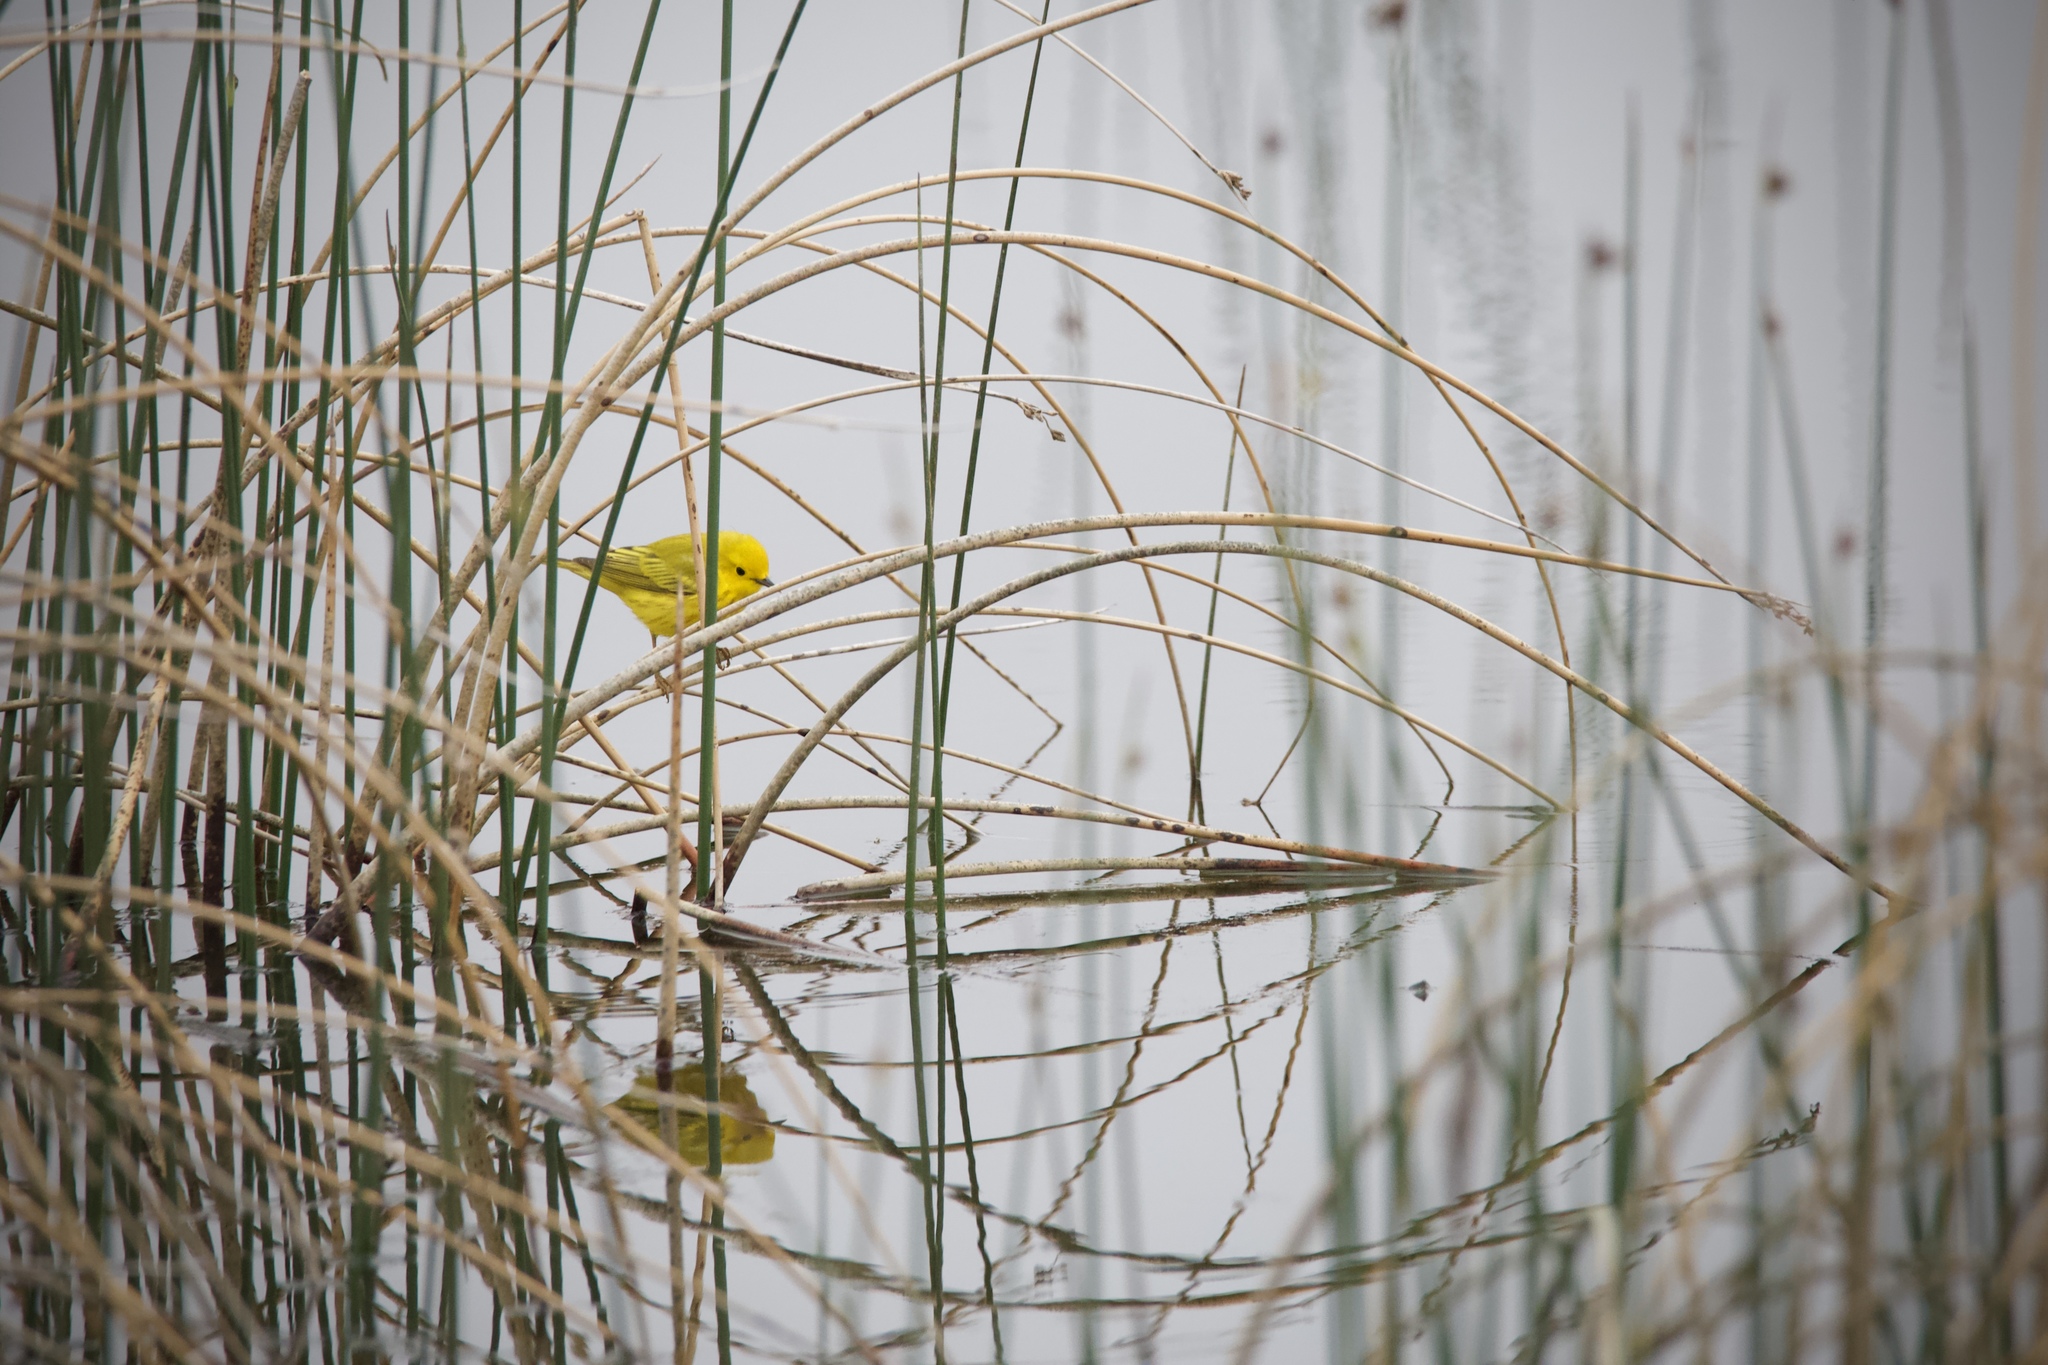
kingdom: Animalia
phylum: Chordata
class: Aves
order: Passeriformes
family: Parulidae
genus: Setophaga
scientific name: Setophaga petechia
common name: Yellow warbler
